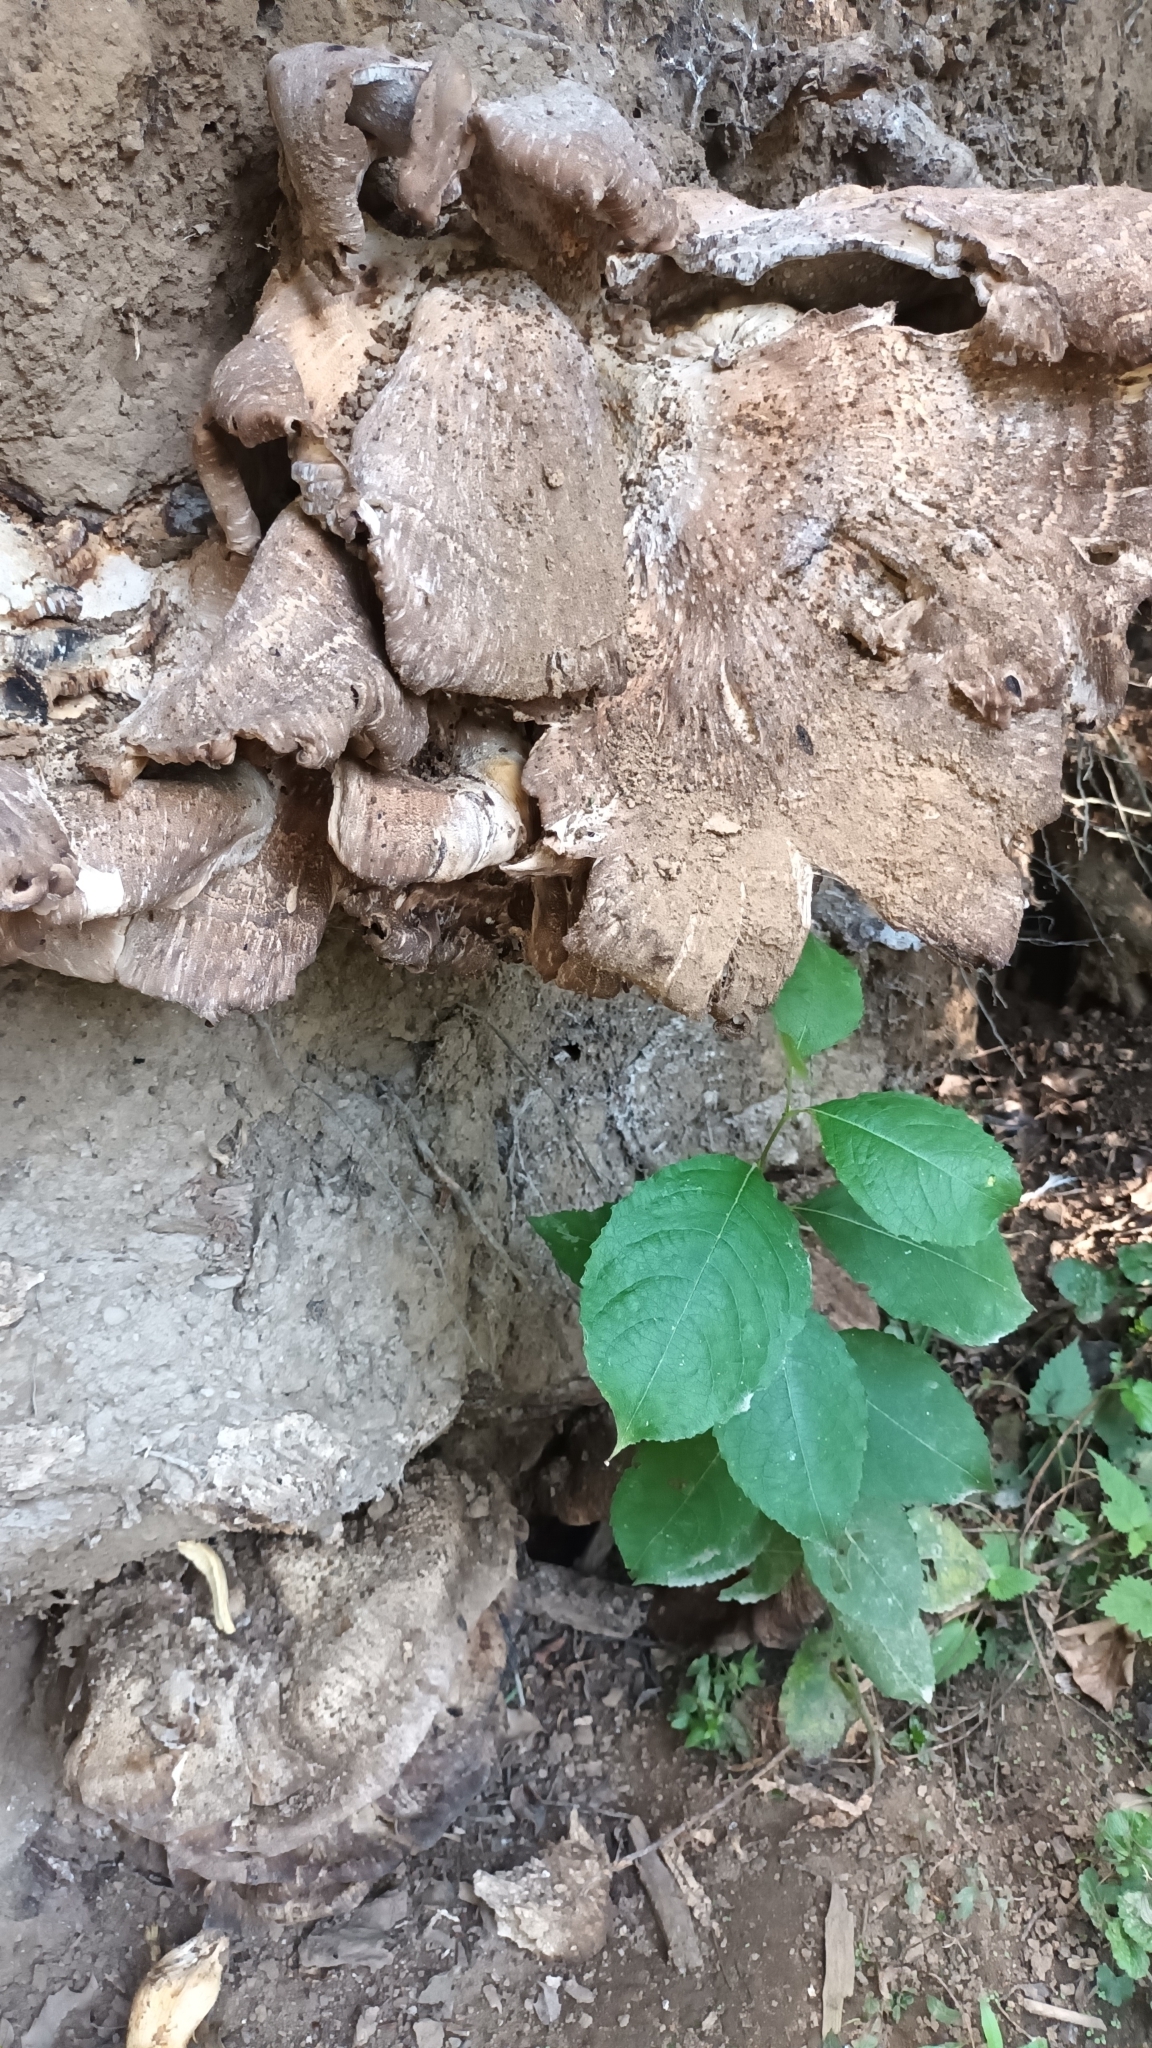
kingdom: Fungi
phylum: Basidiomycota
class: Agaricomycetes
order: Polyporales
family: Meripilaceae
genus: Meripilus
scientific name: Meripilus giganteus
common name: Giant polypore
